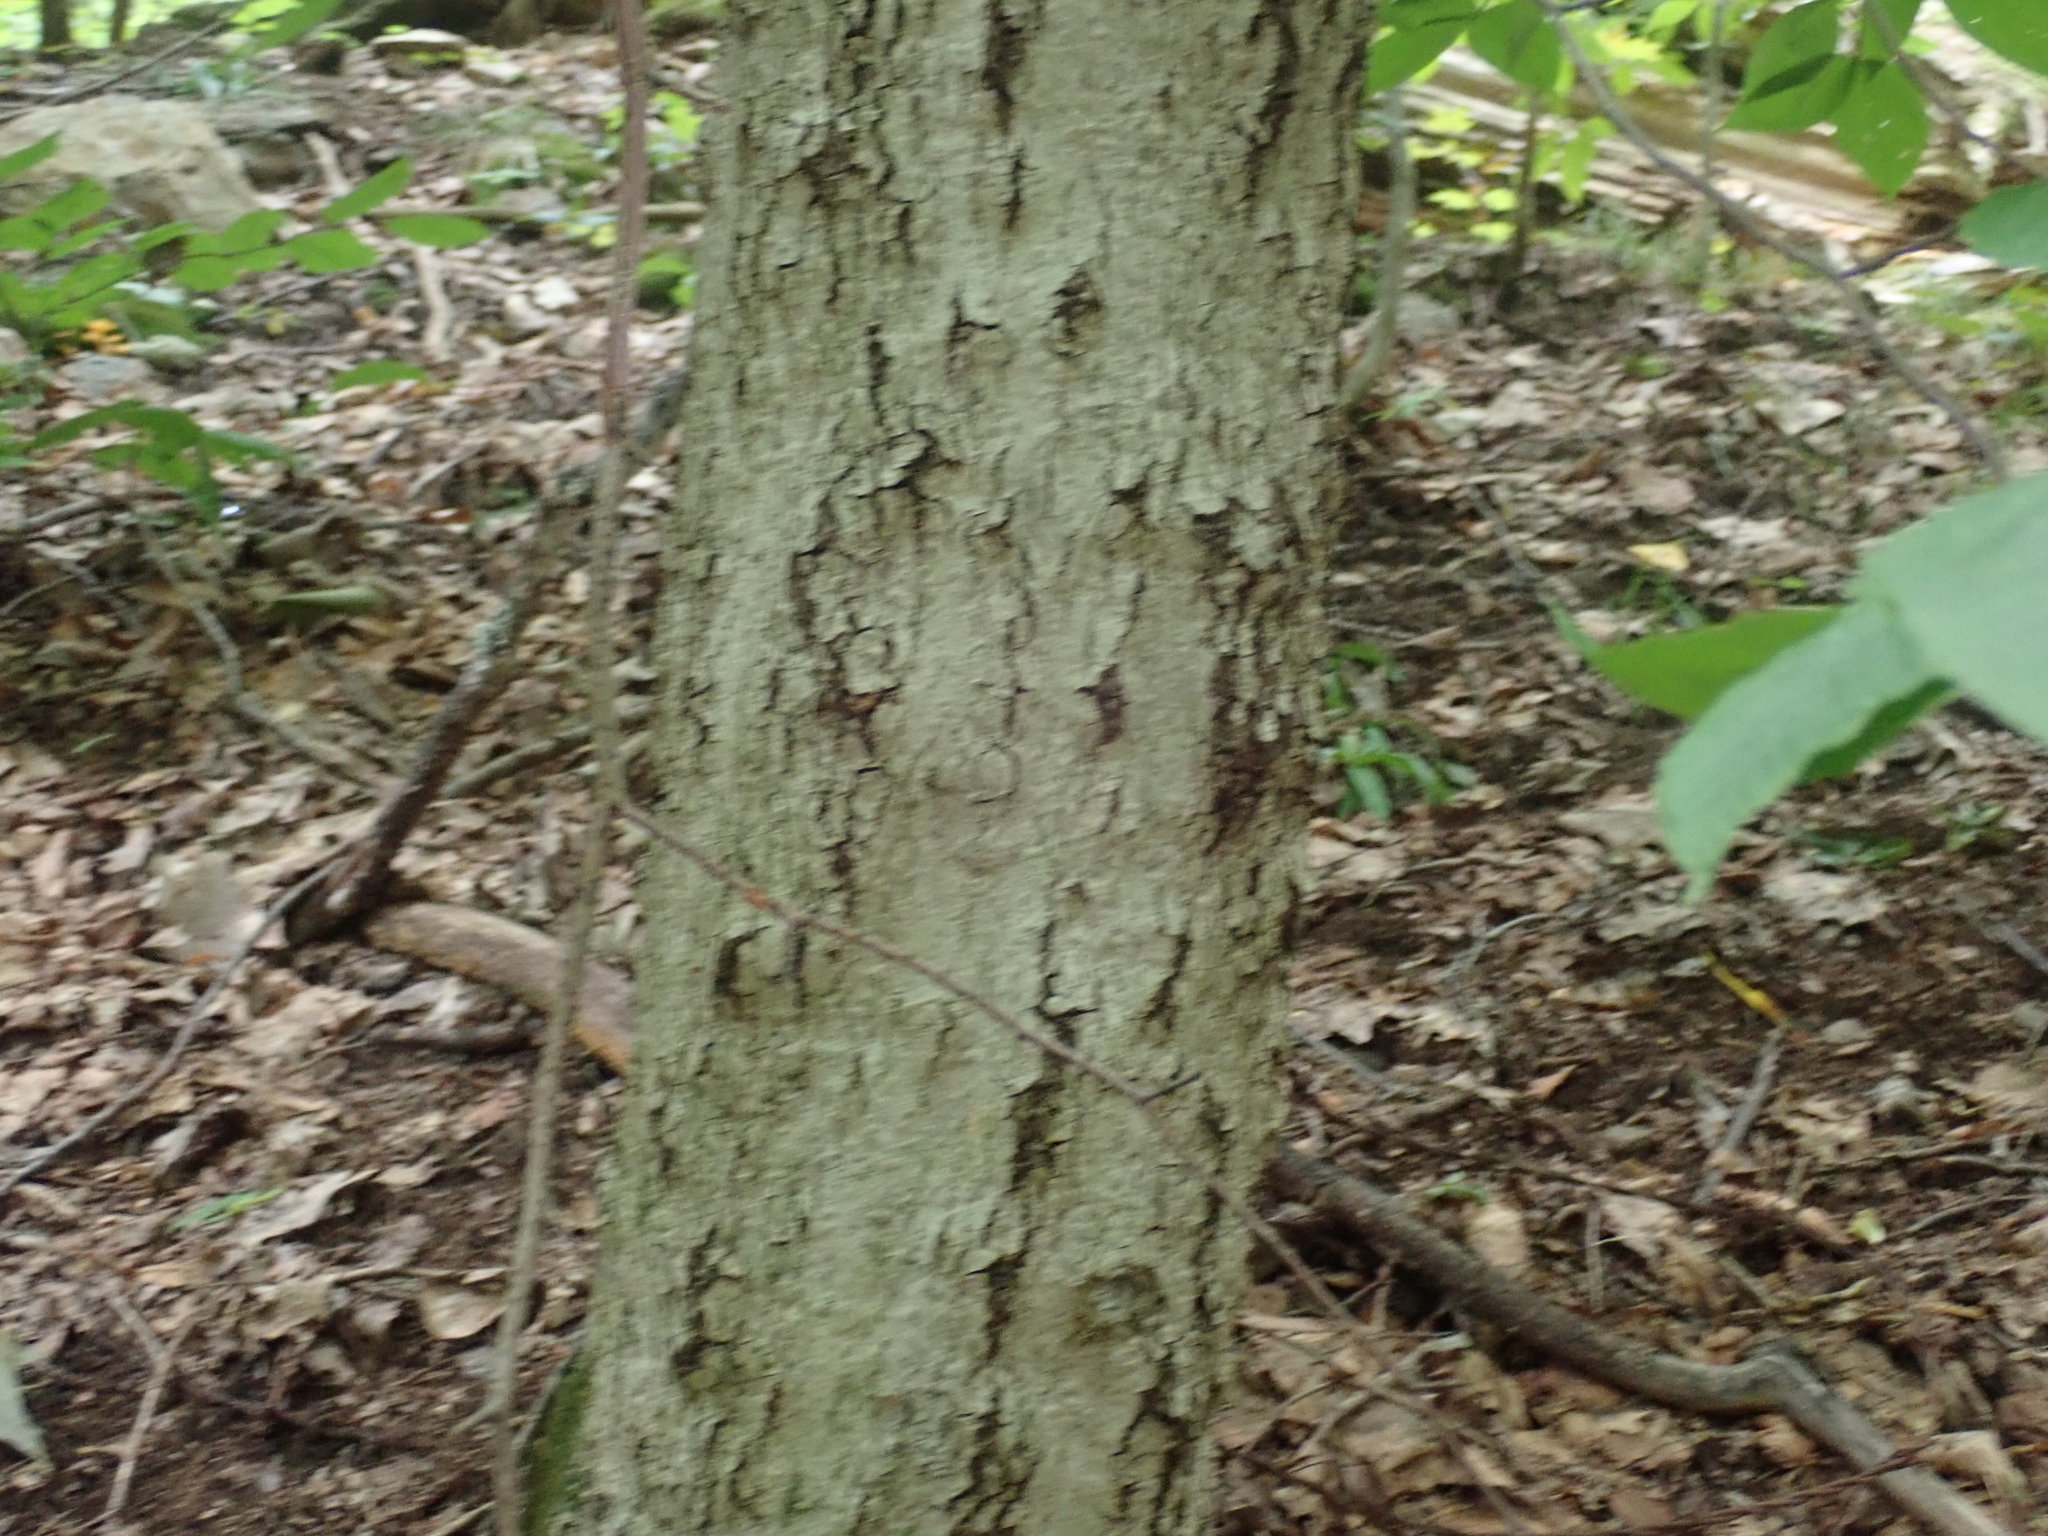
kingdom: Fungi
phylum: Ascomycota
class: Sordariomycetes
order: Hypocreales
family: Nectriaceae
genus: Neonectria
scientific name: Neonectria faginata
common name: Beech bark canker
